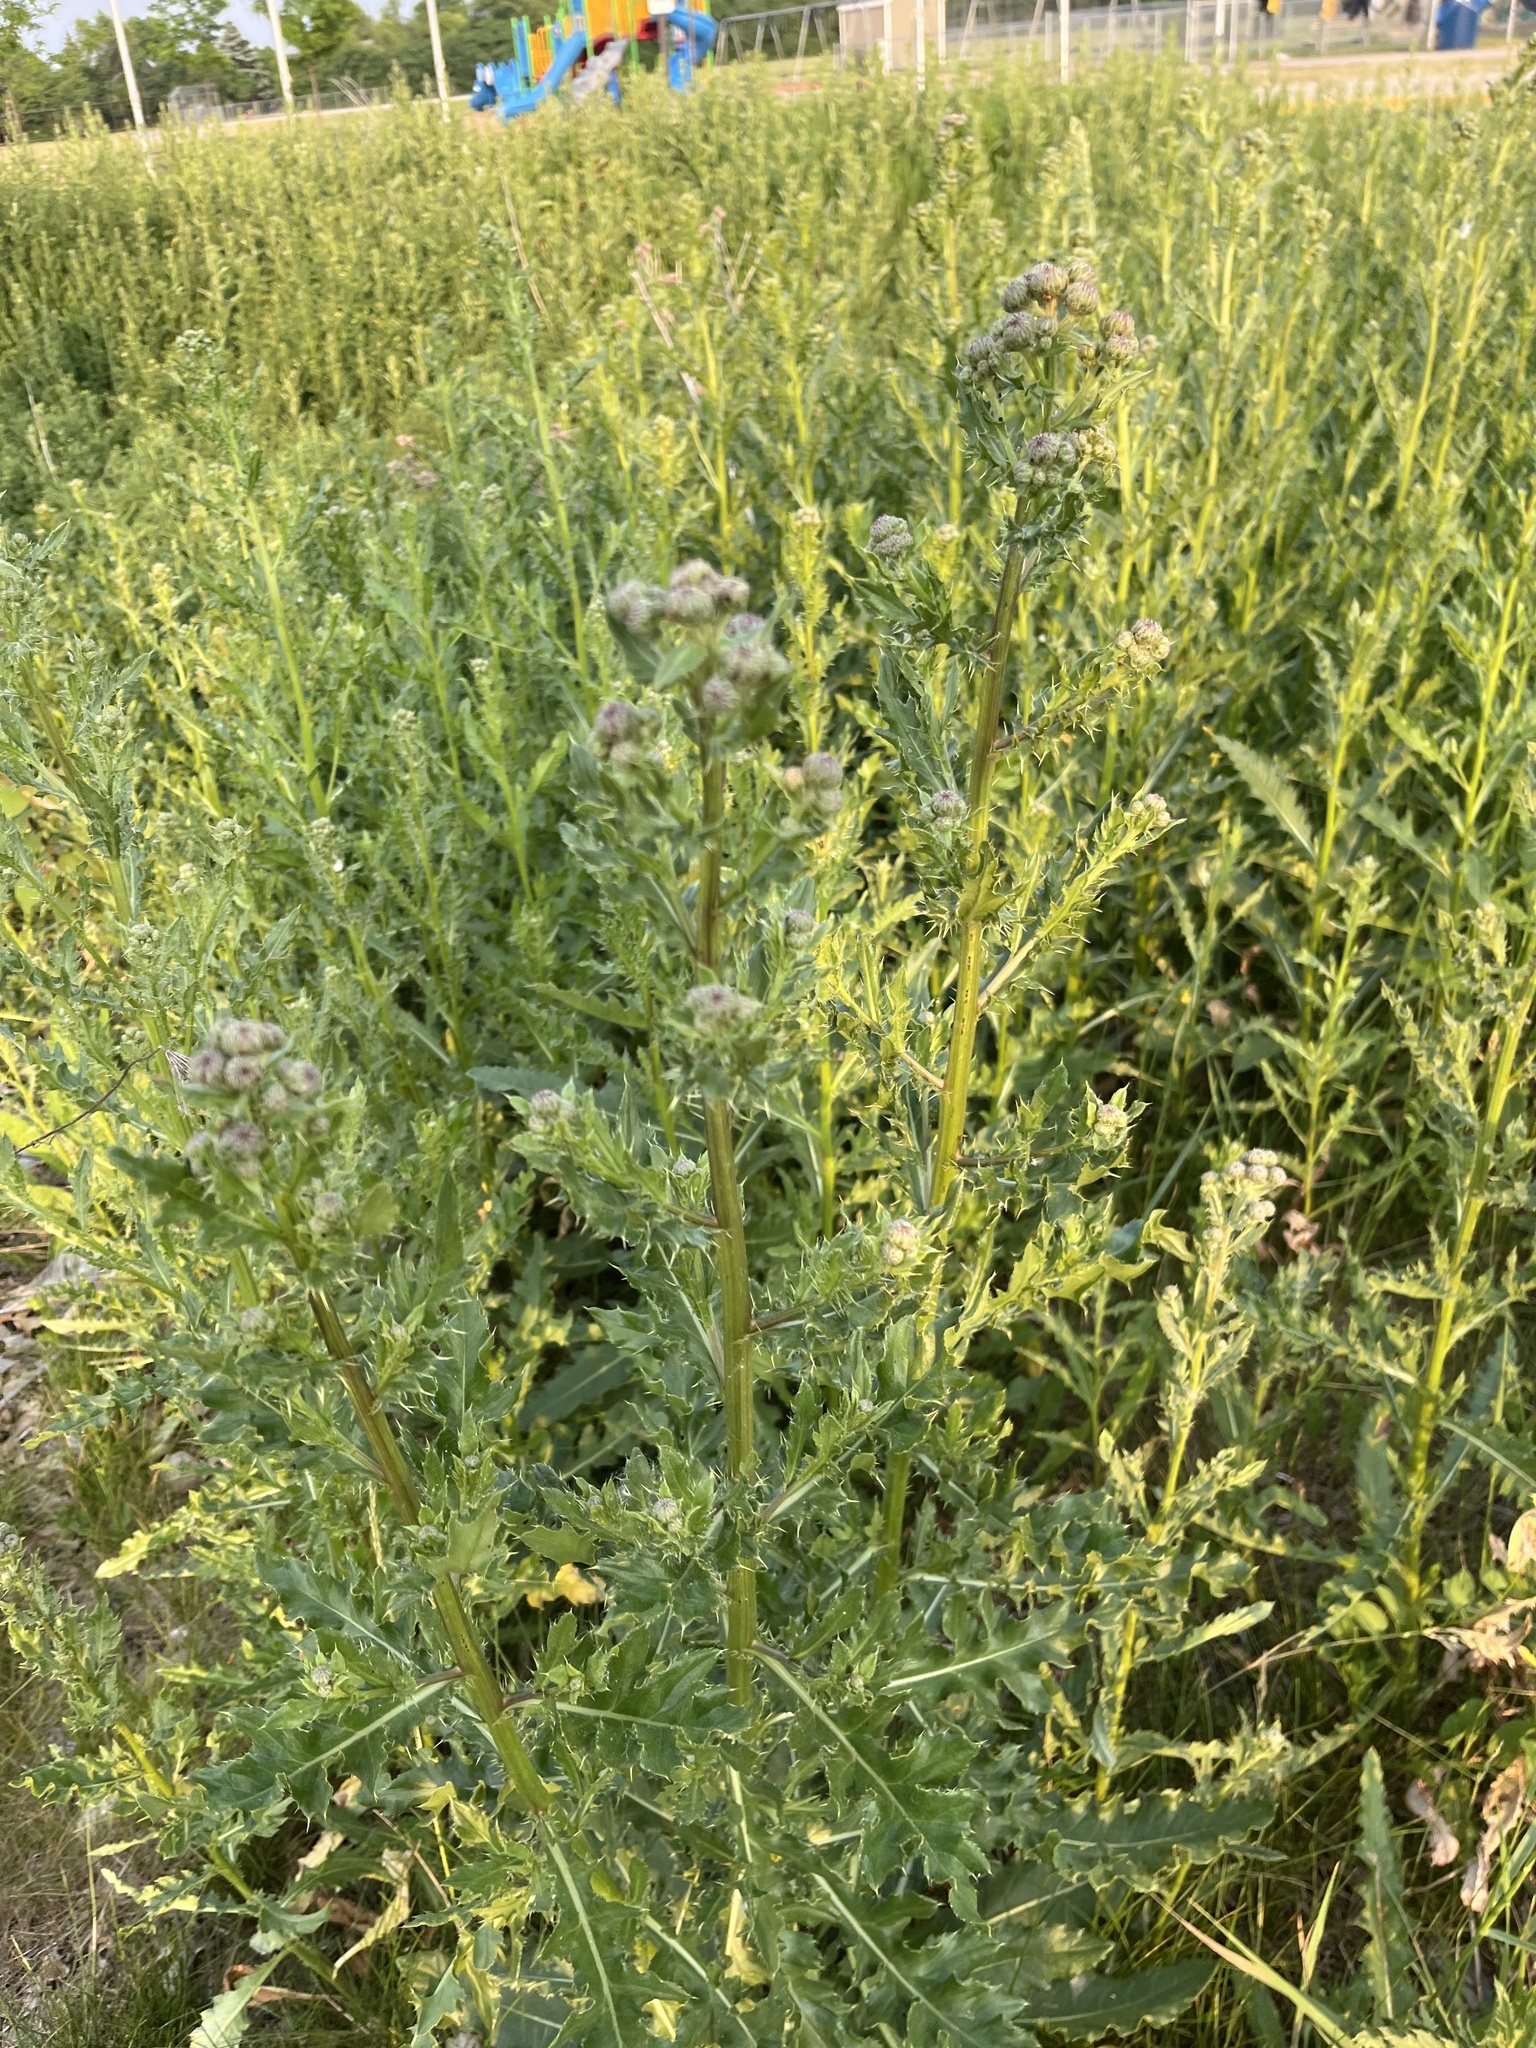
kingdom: Plantae
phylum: Tracheophyta
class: Magnoliopsida
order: Asterales
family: Asteraceae
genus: Cirsium
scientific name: Cirsium arvense
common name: Creeping thistle
